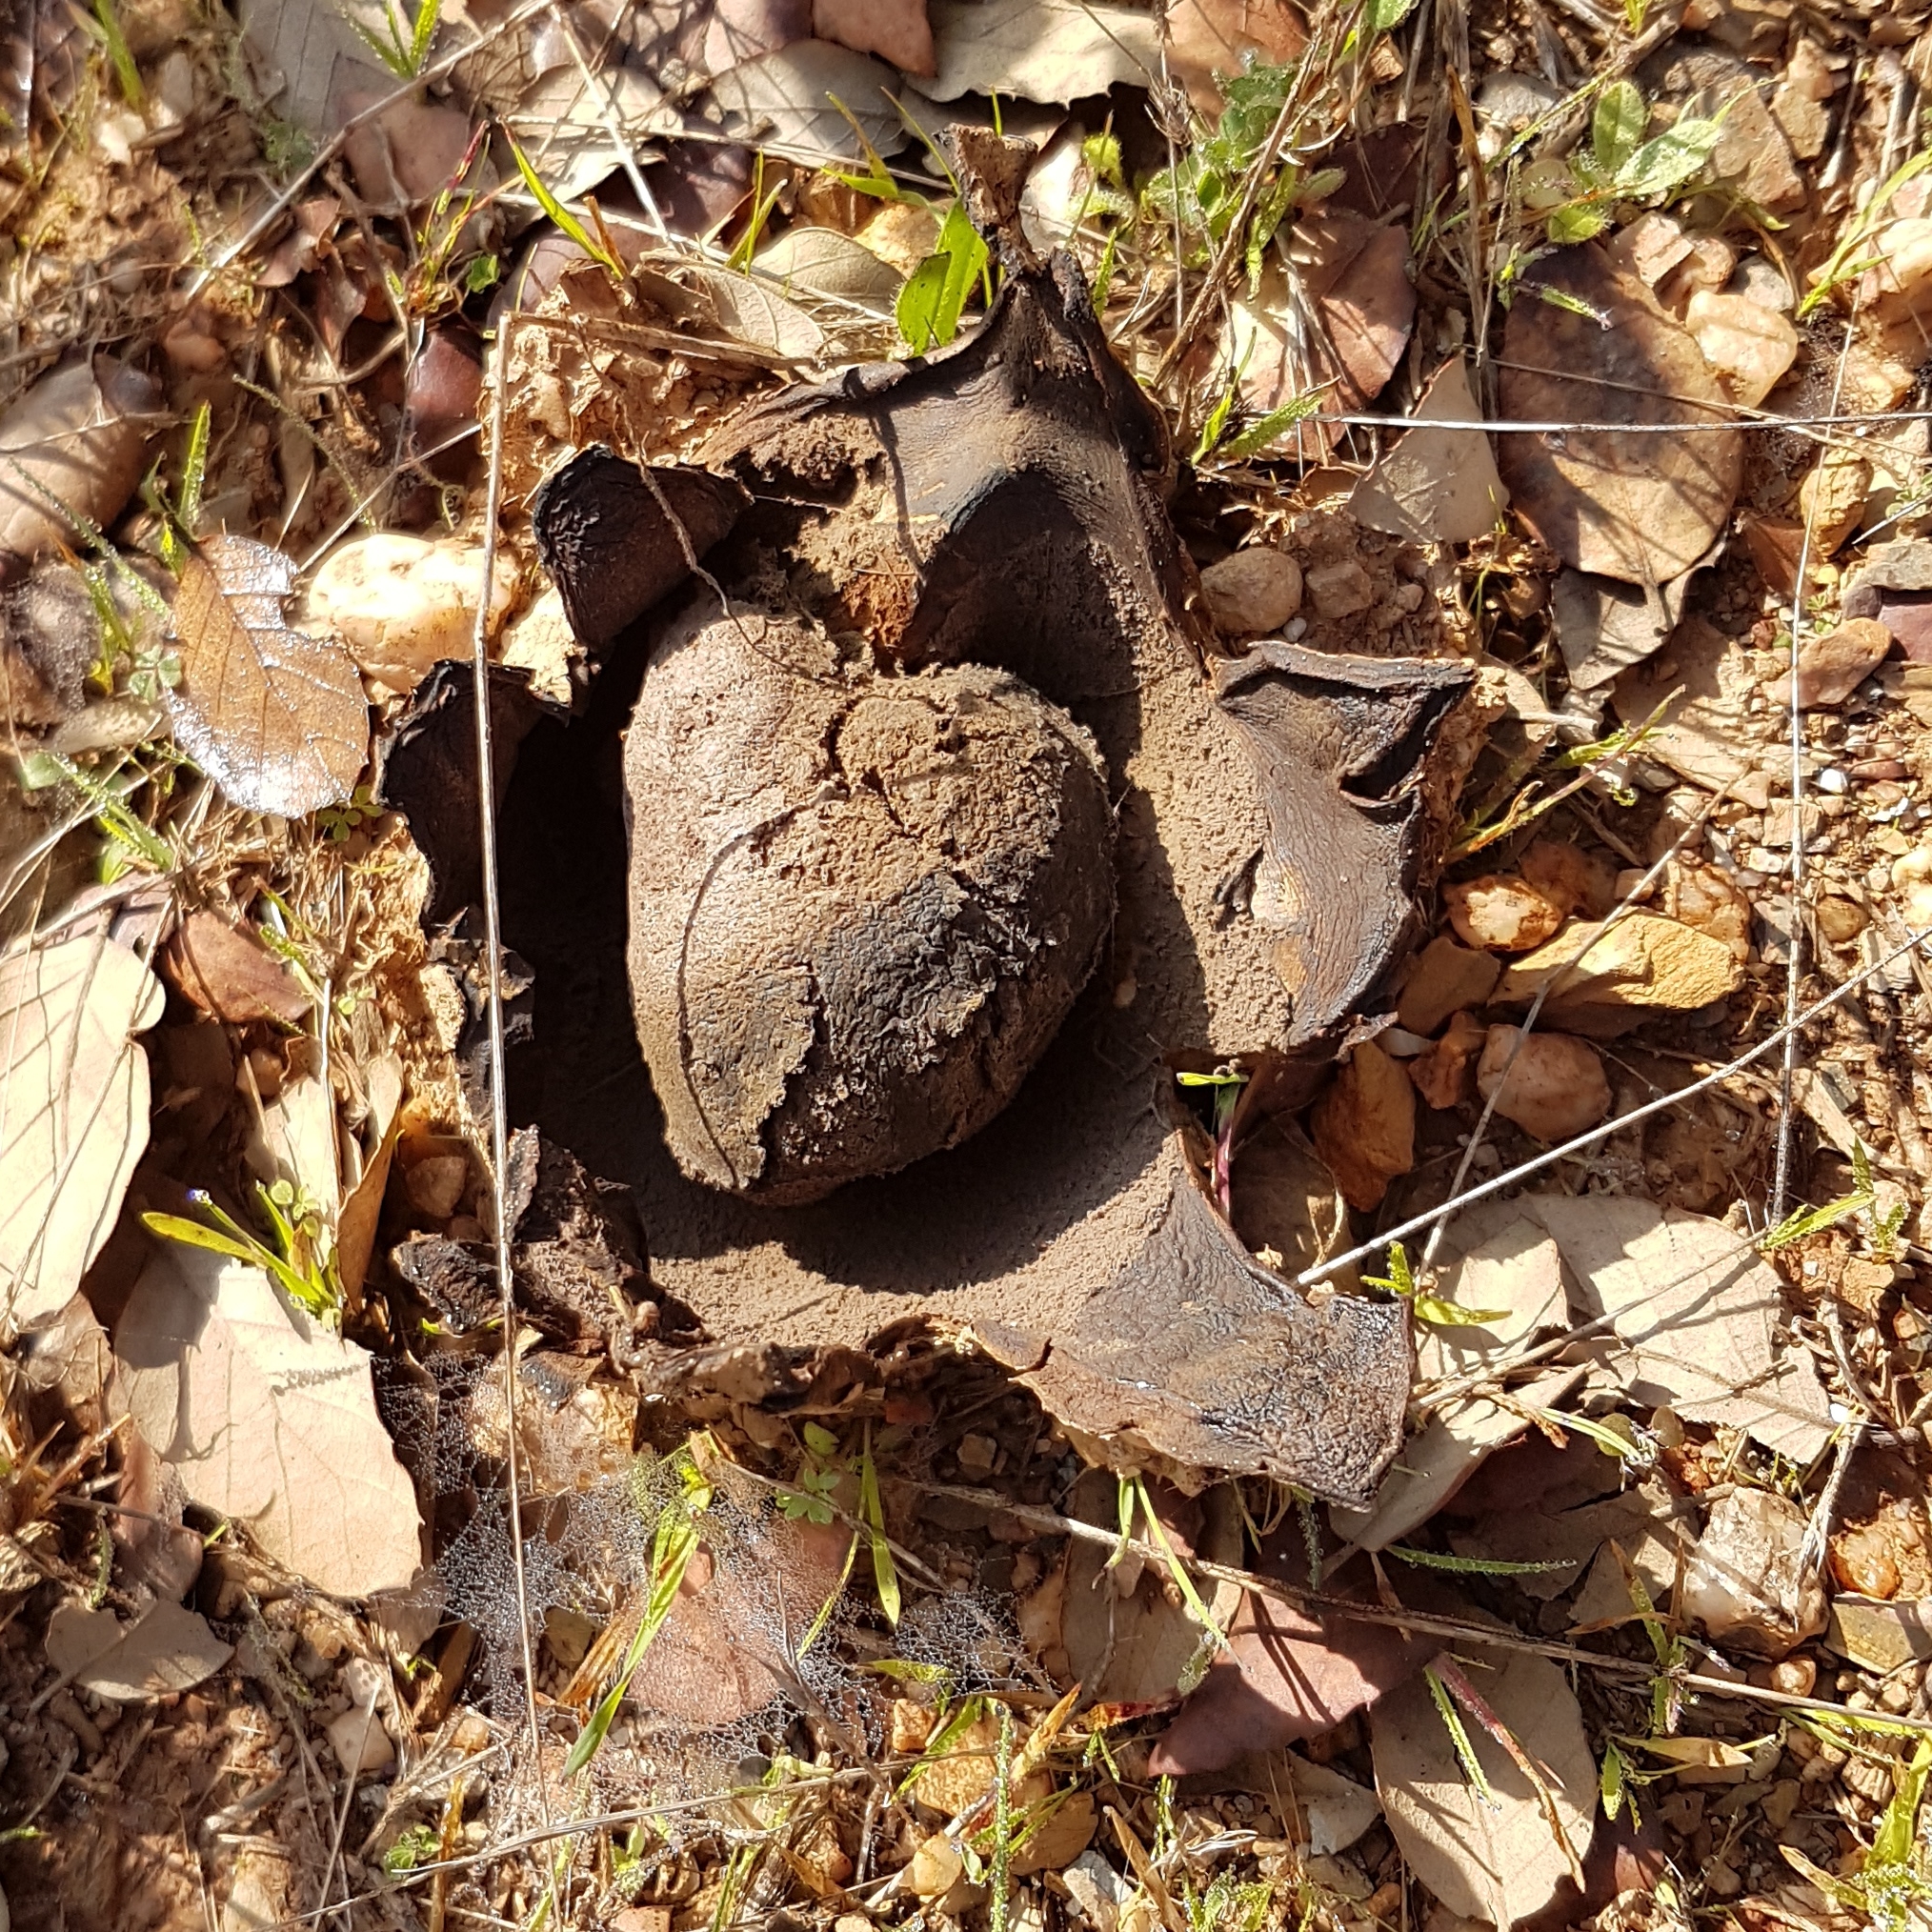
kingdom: Fungi
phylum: Basidiomycota
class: Agaricomycetes
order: Boletales
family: Sclerodermataceae
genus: Scleroderma
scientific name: Scleroderma polyrhizum
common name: Many-rooted earthball
